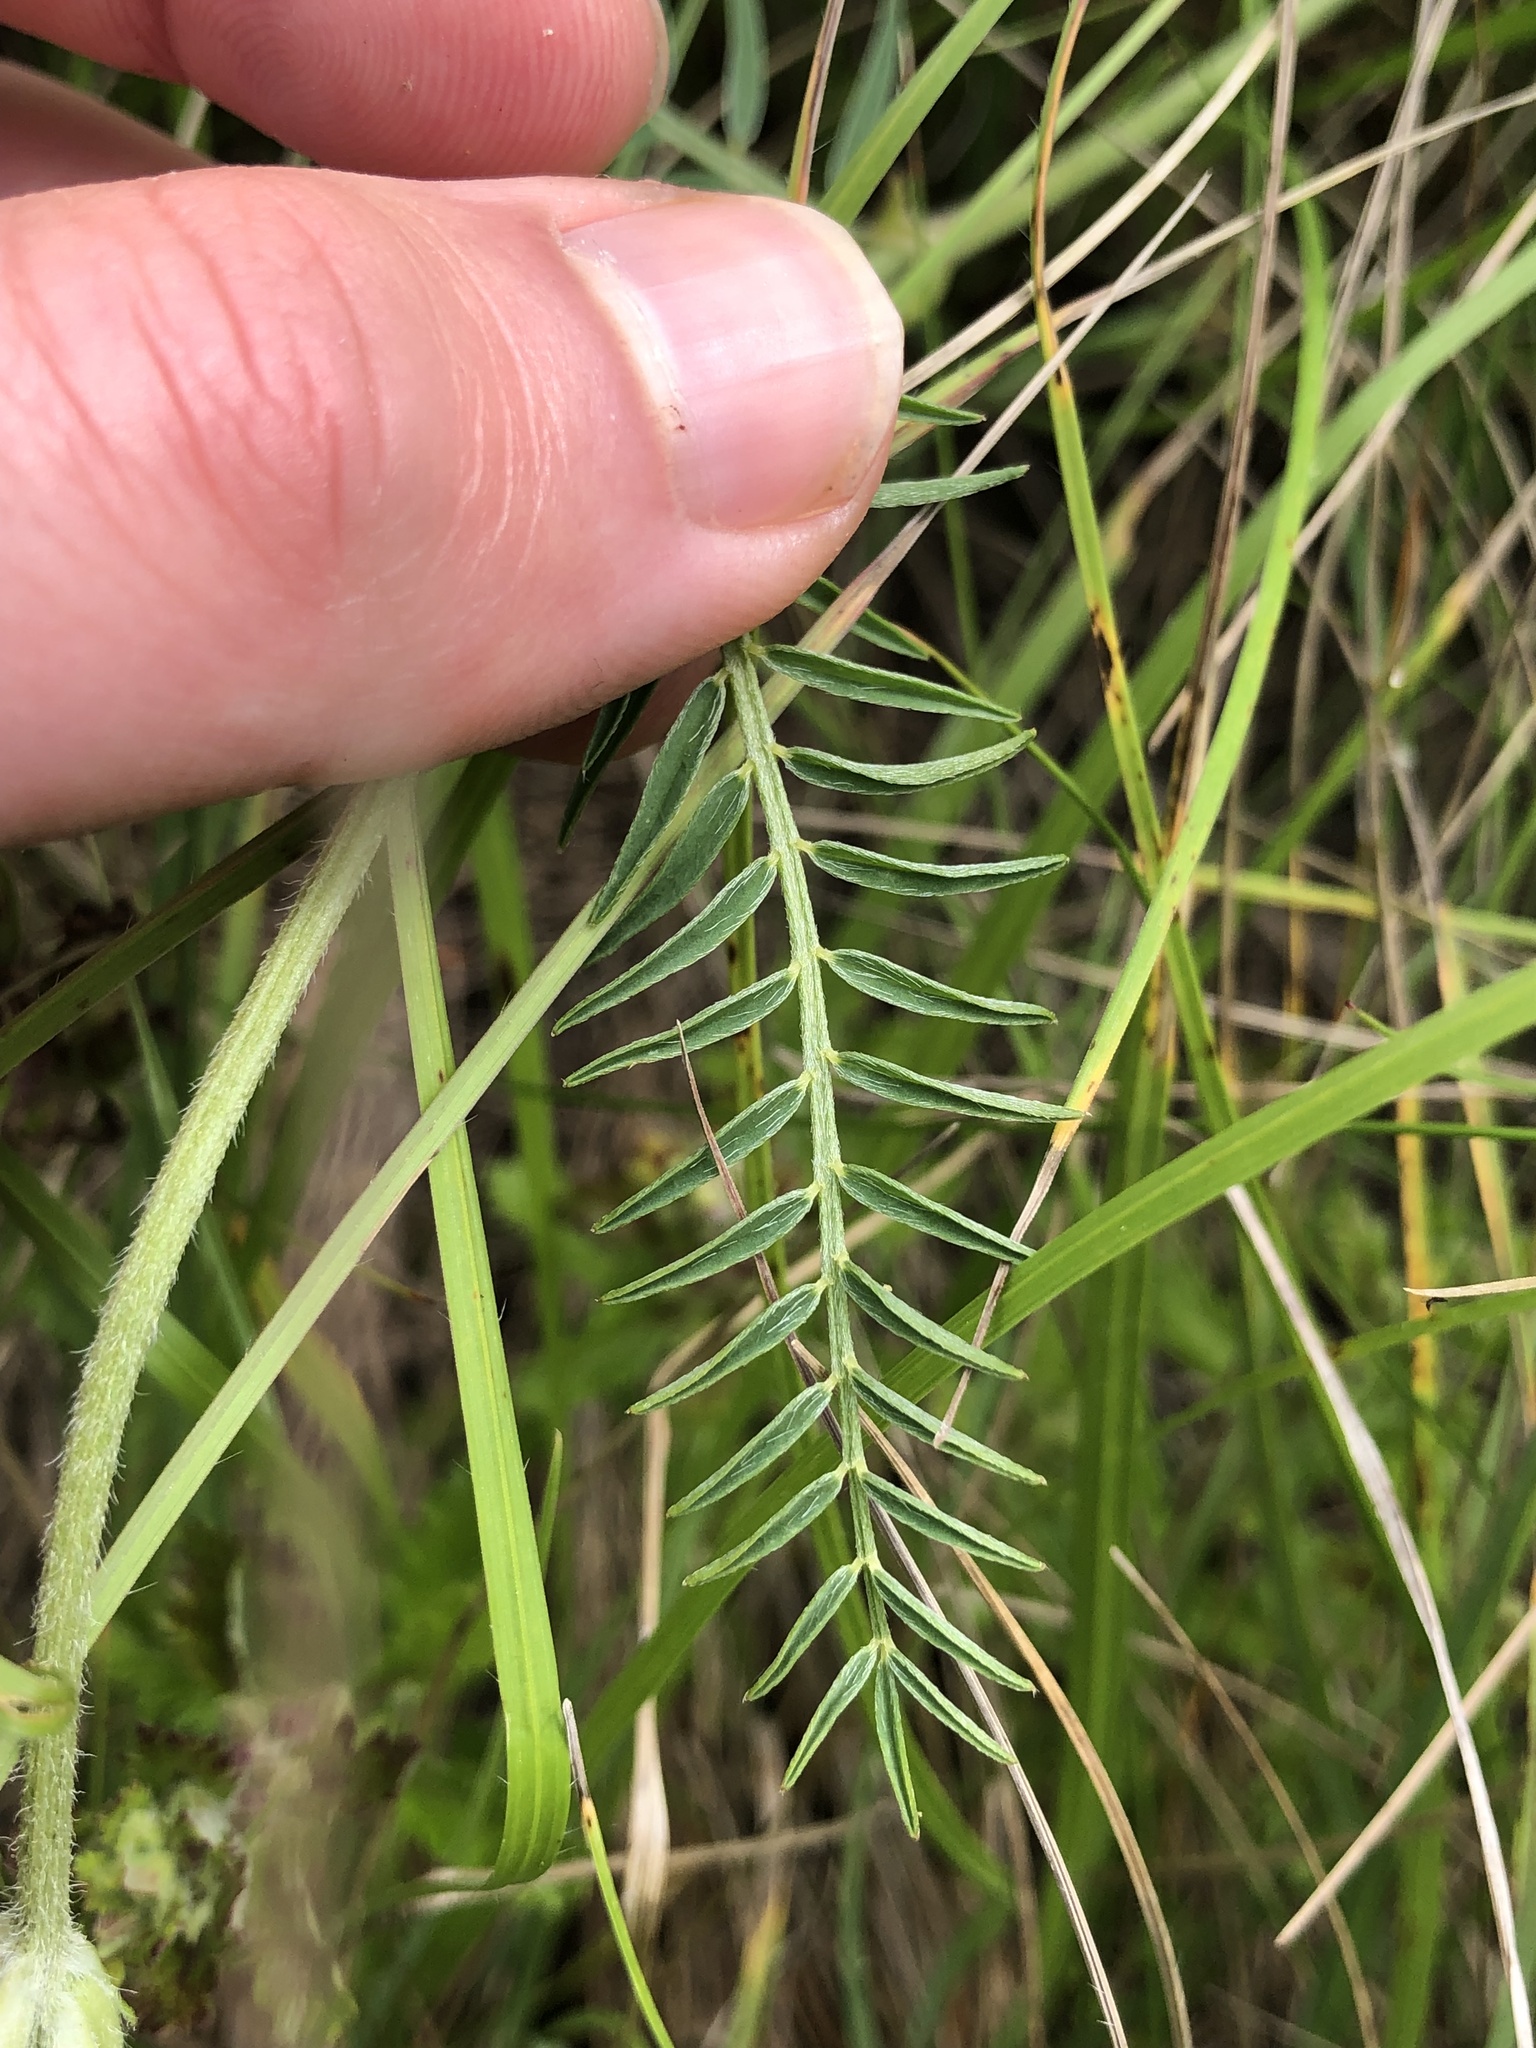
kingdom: Plantae
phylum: Tracheophyta
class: Magnoliopsida
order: Fabales
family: Fabaceae
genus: Astragalus
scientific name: Astragalus onobrychis
